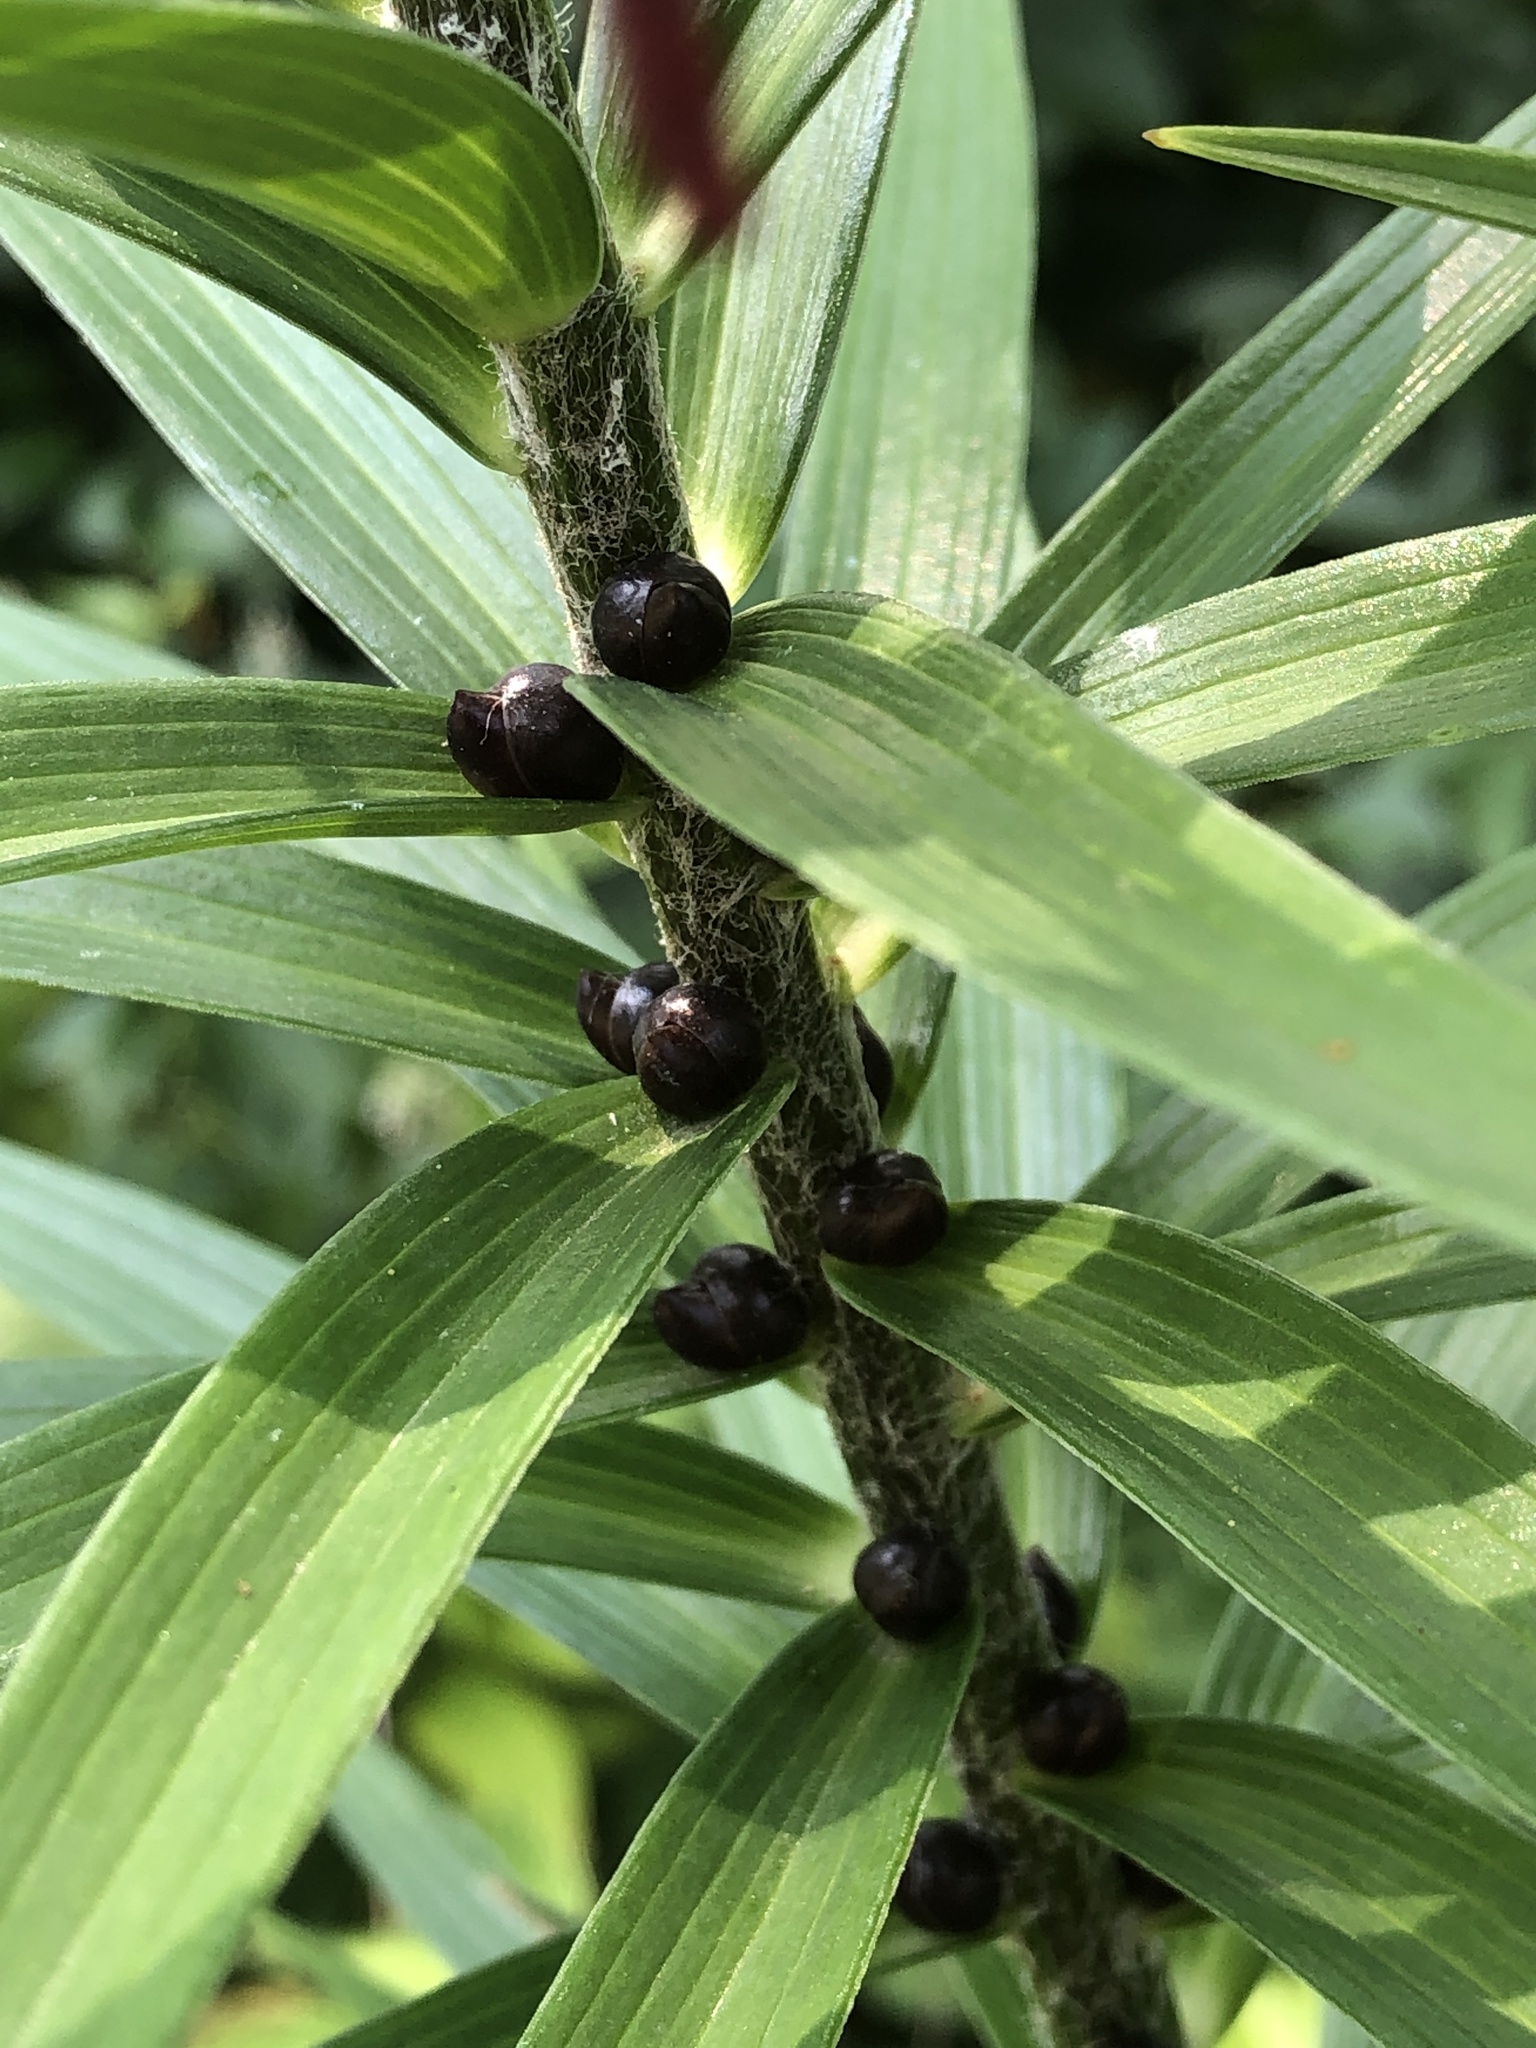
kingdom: Plantae
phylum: Tracheophyta
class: Liliopsida
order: Liliales
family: Liliaceae
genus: Lilium
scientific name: Lilium lancifolium
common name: Tiger lily
